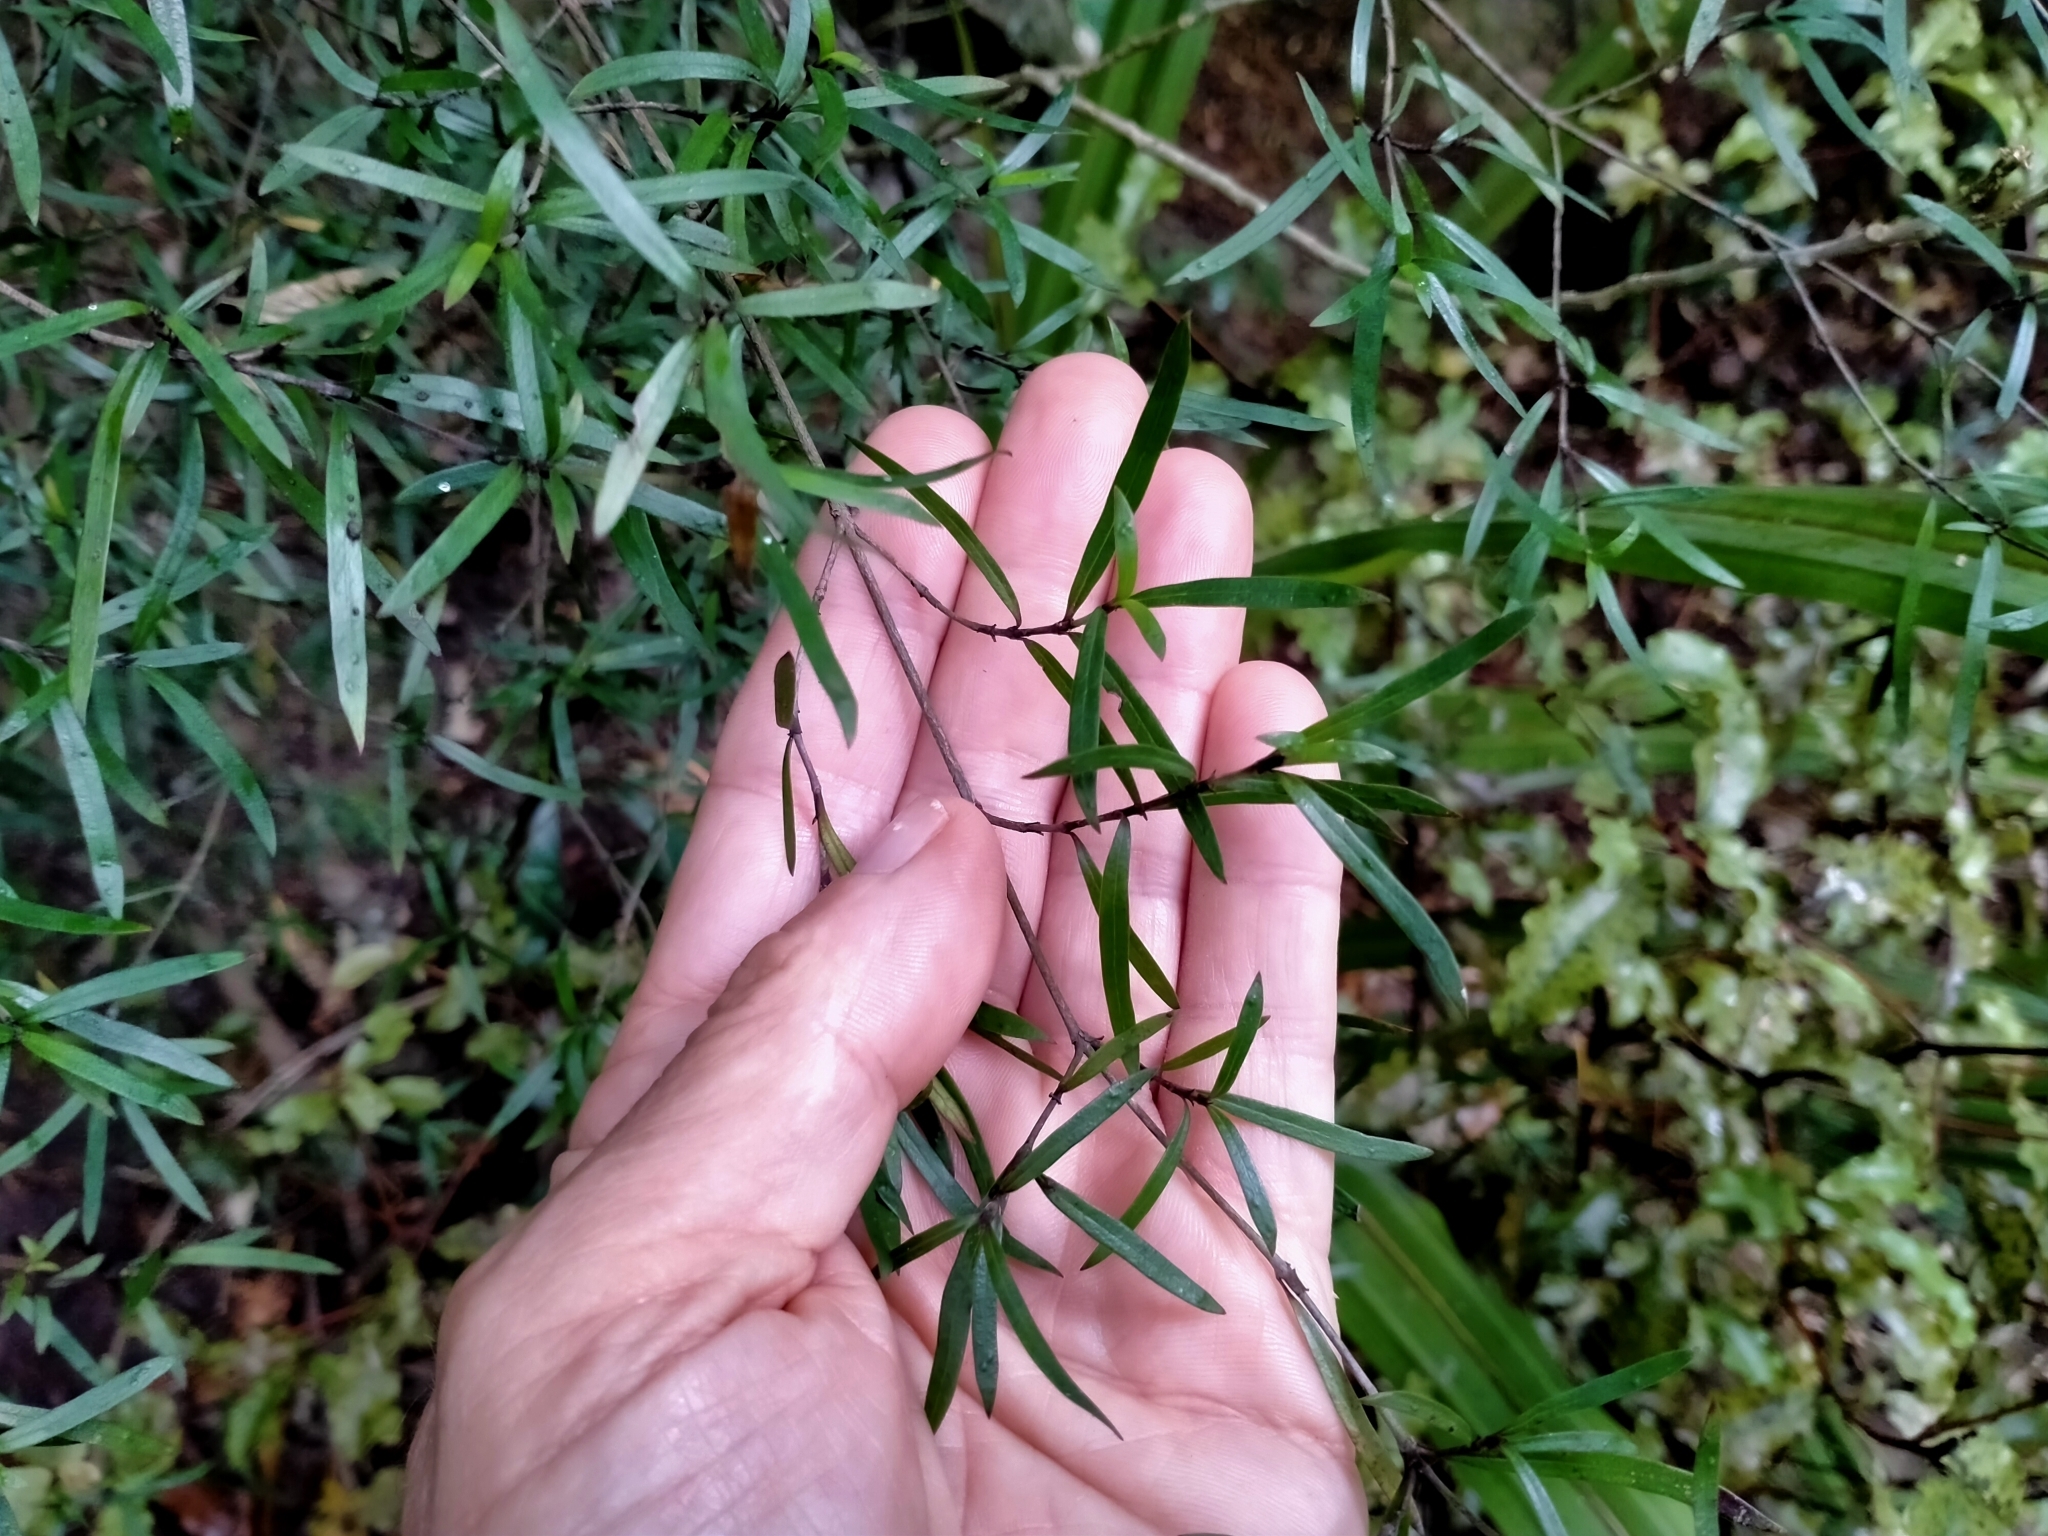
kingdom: Plantae
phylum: Tracheophyta
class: Magnoliopsida
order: Gentianales
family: Rubiaceae
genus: Coprosma
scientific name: Coprosma linariifolia
